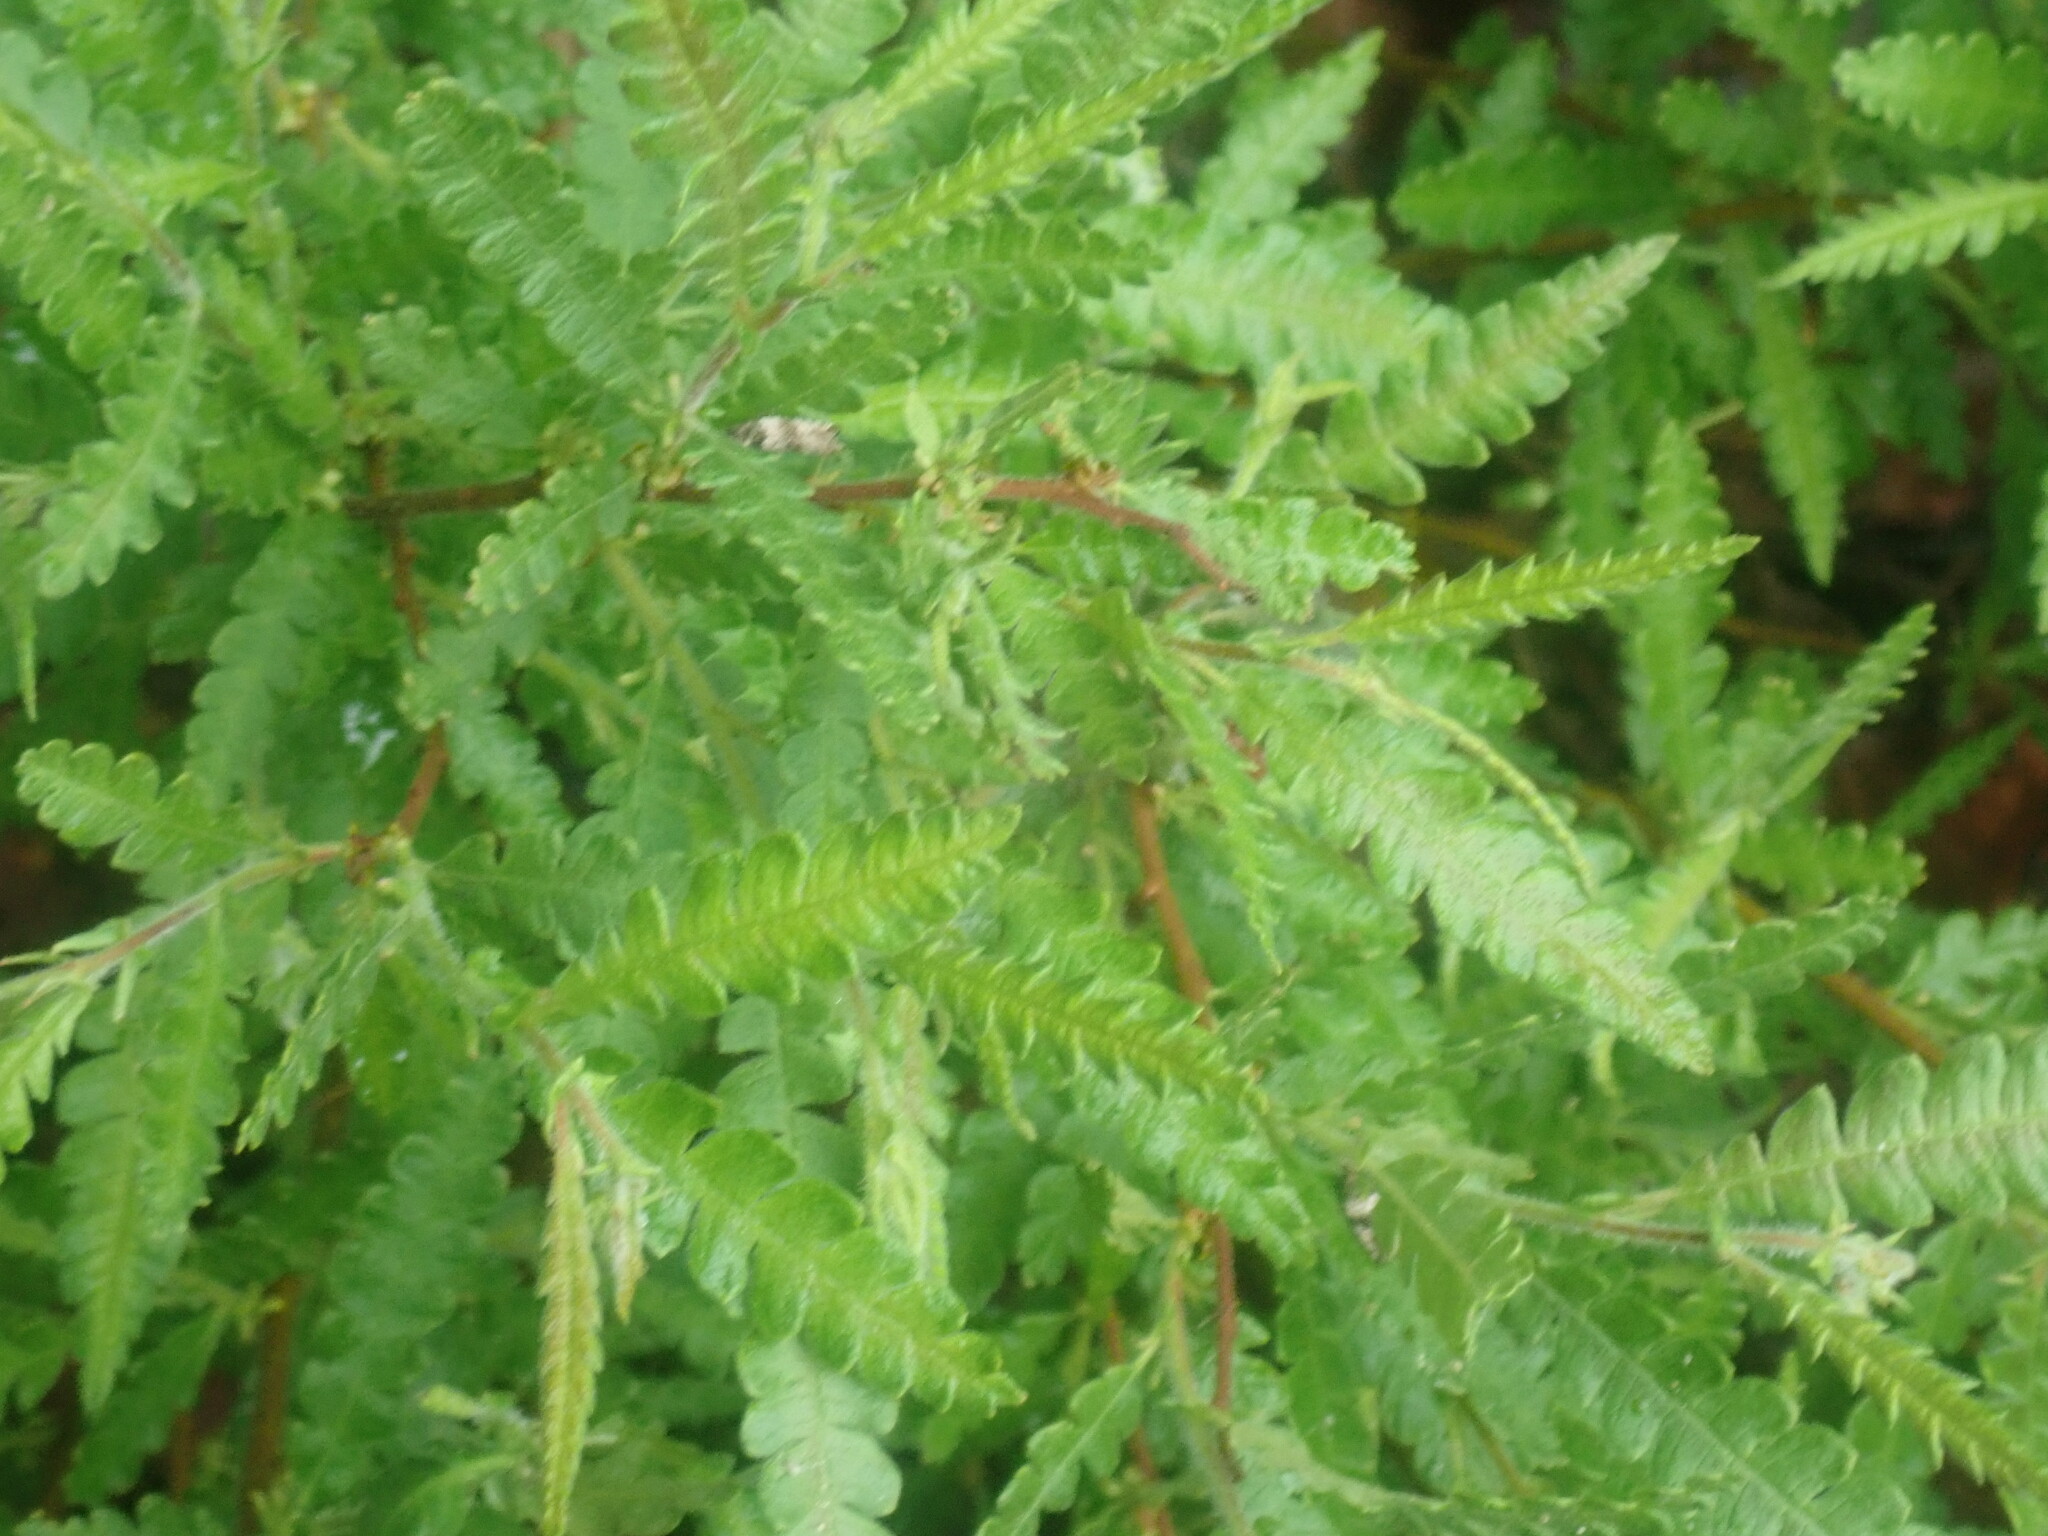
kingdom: Plantae
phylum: Tracheophyta
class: Magnoliopsida
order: Fagales
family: Myricaceae
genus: Comptonia
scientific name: Comptonia peregrina
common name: Sweet-fern
